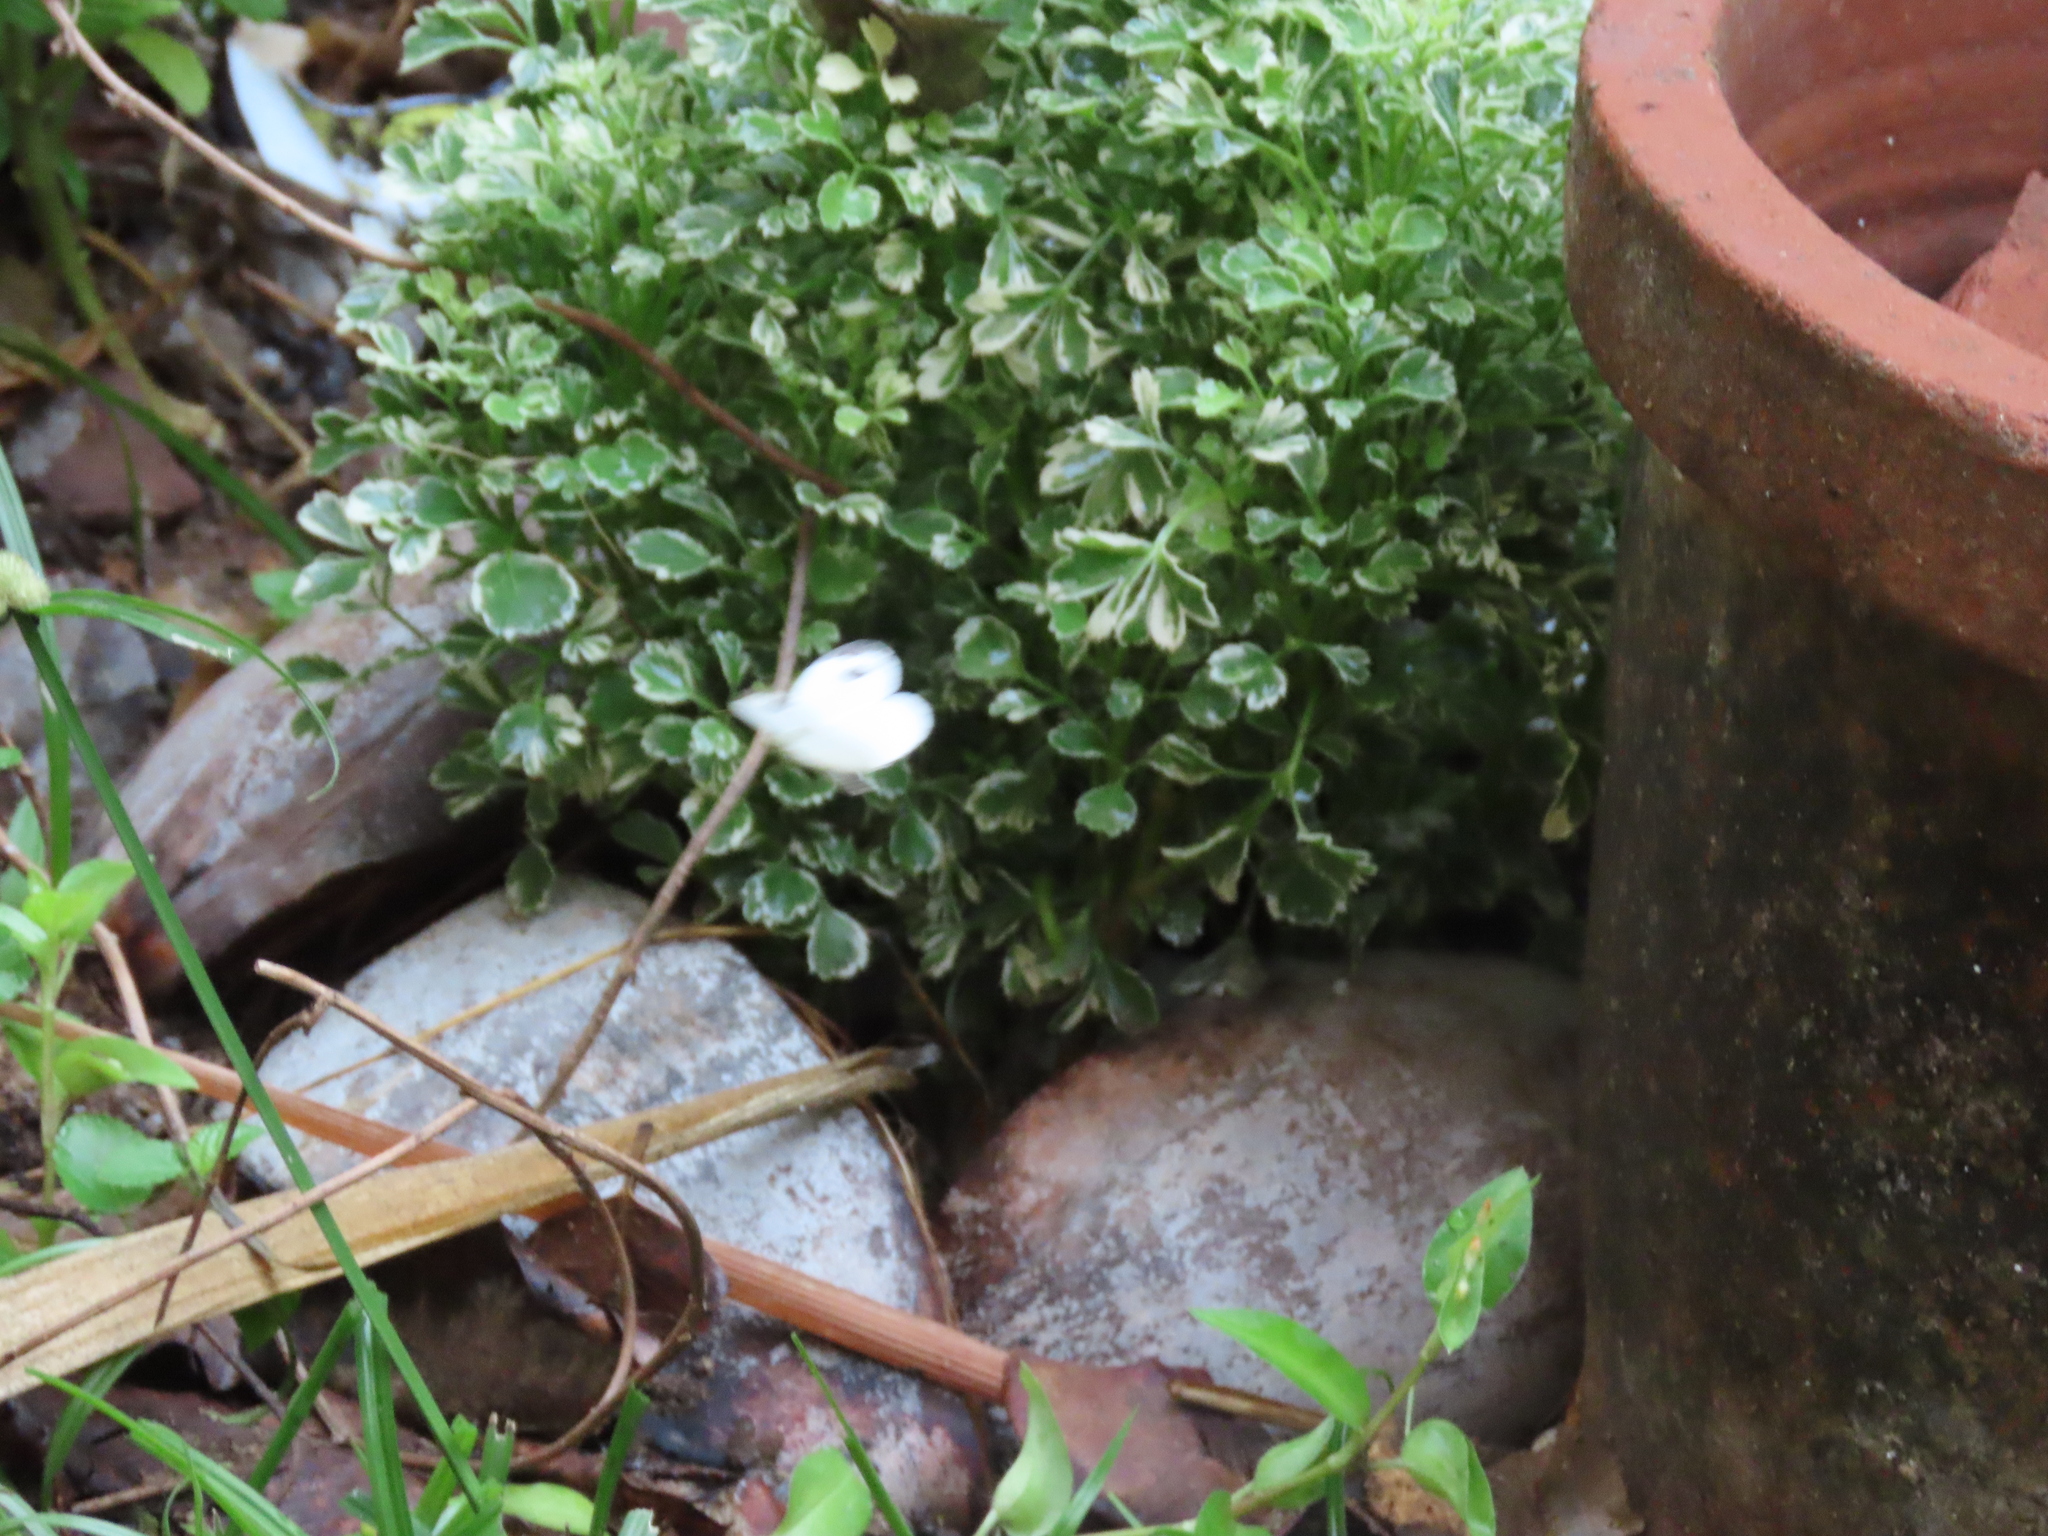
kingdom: Animalia
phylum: Arthropoda
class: Insecta
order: Lepidoptera
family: Pieridae
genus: Leptosia
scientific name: Leptosia nina
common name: Psyche
